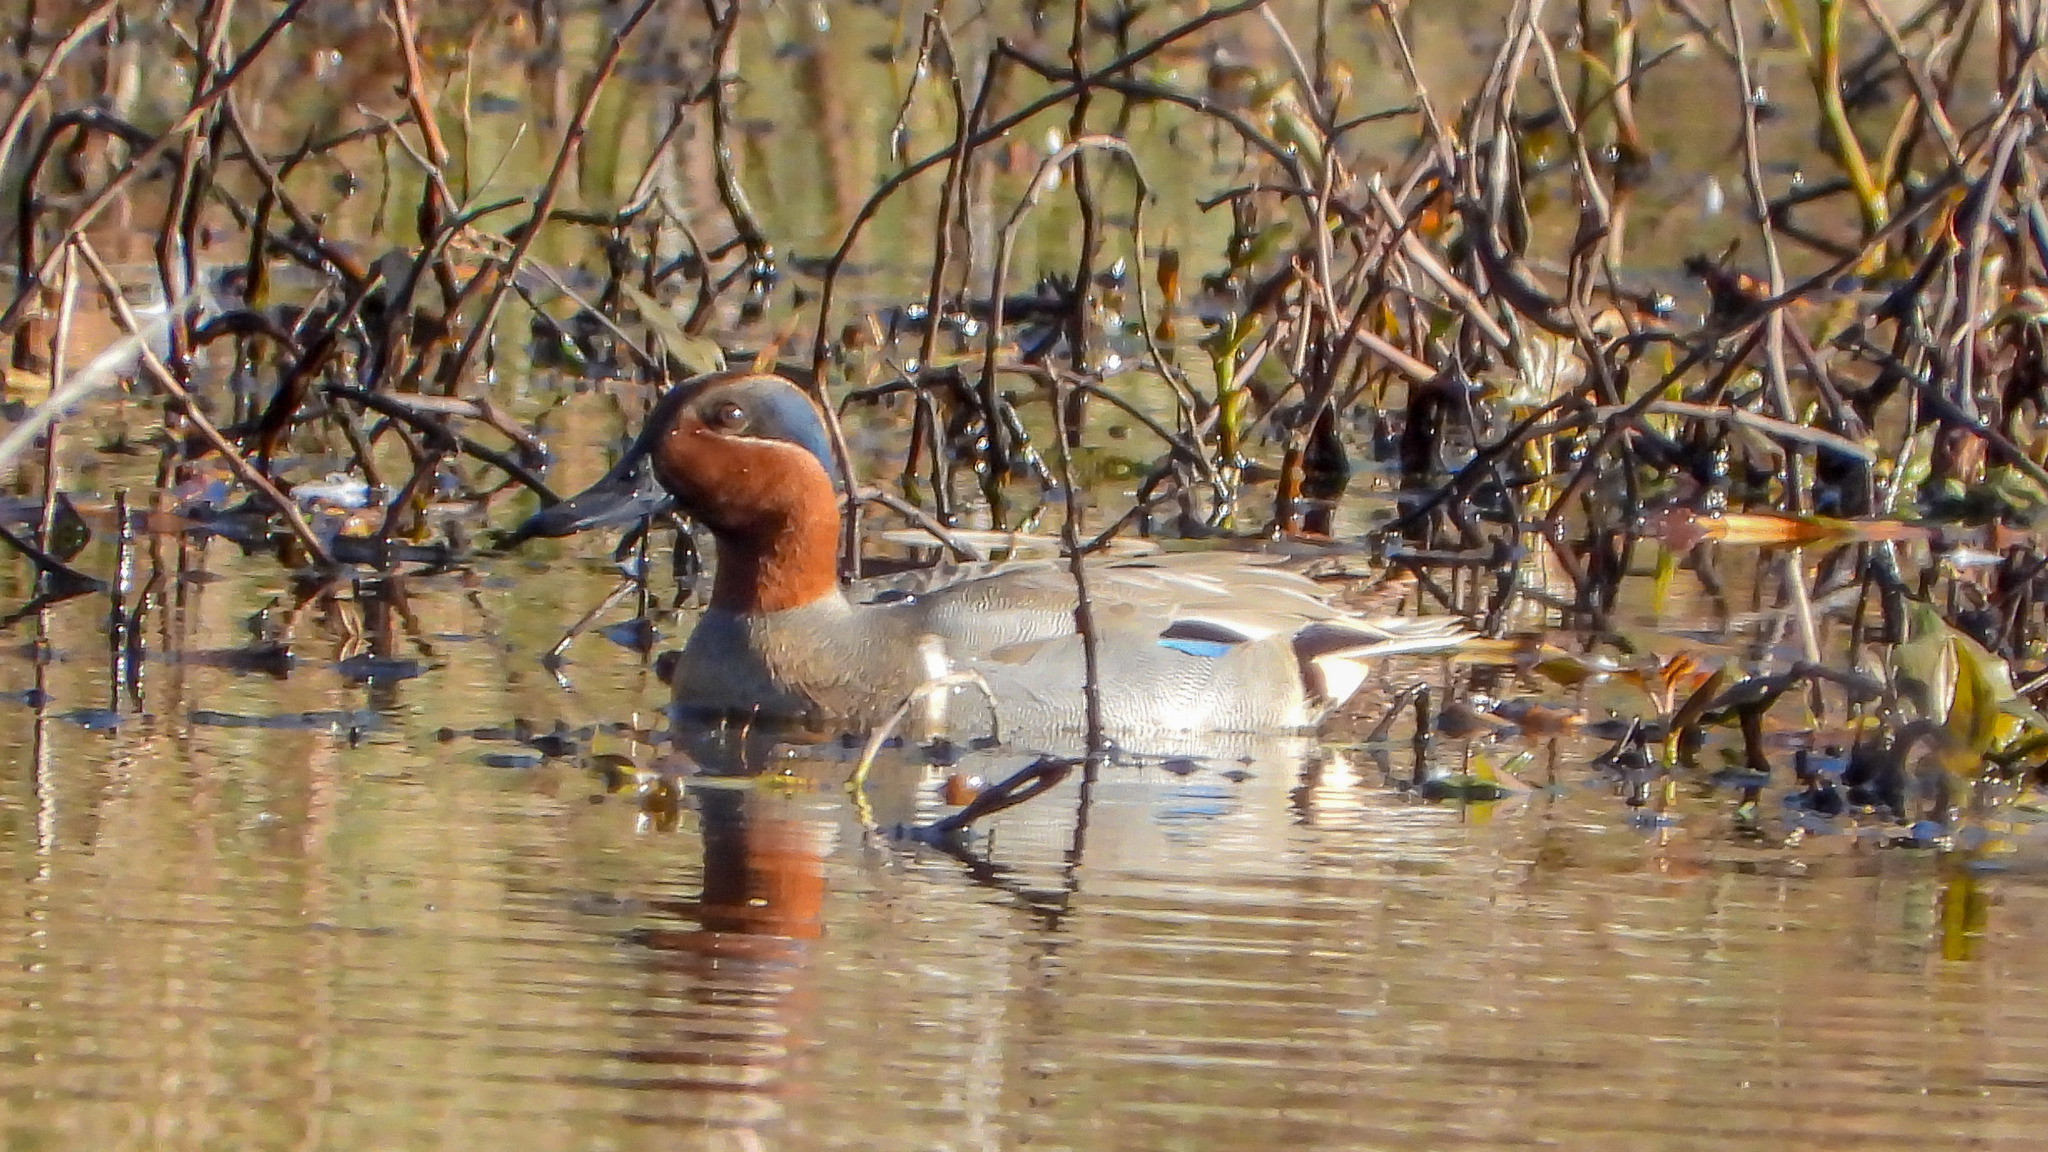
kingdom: Animalia
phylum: Chordata
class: Aves
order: Anseriformes
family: Anatidae
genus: Anas
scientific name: Anas crecca
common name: Eurasian teal
